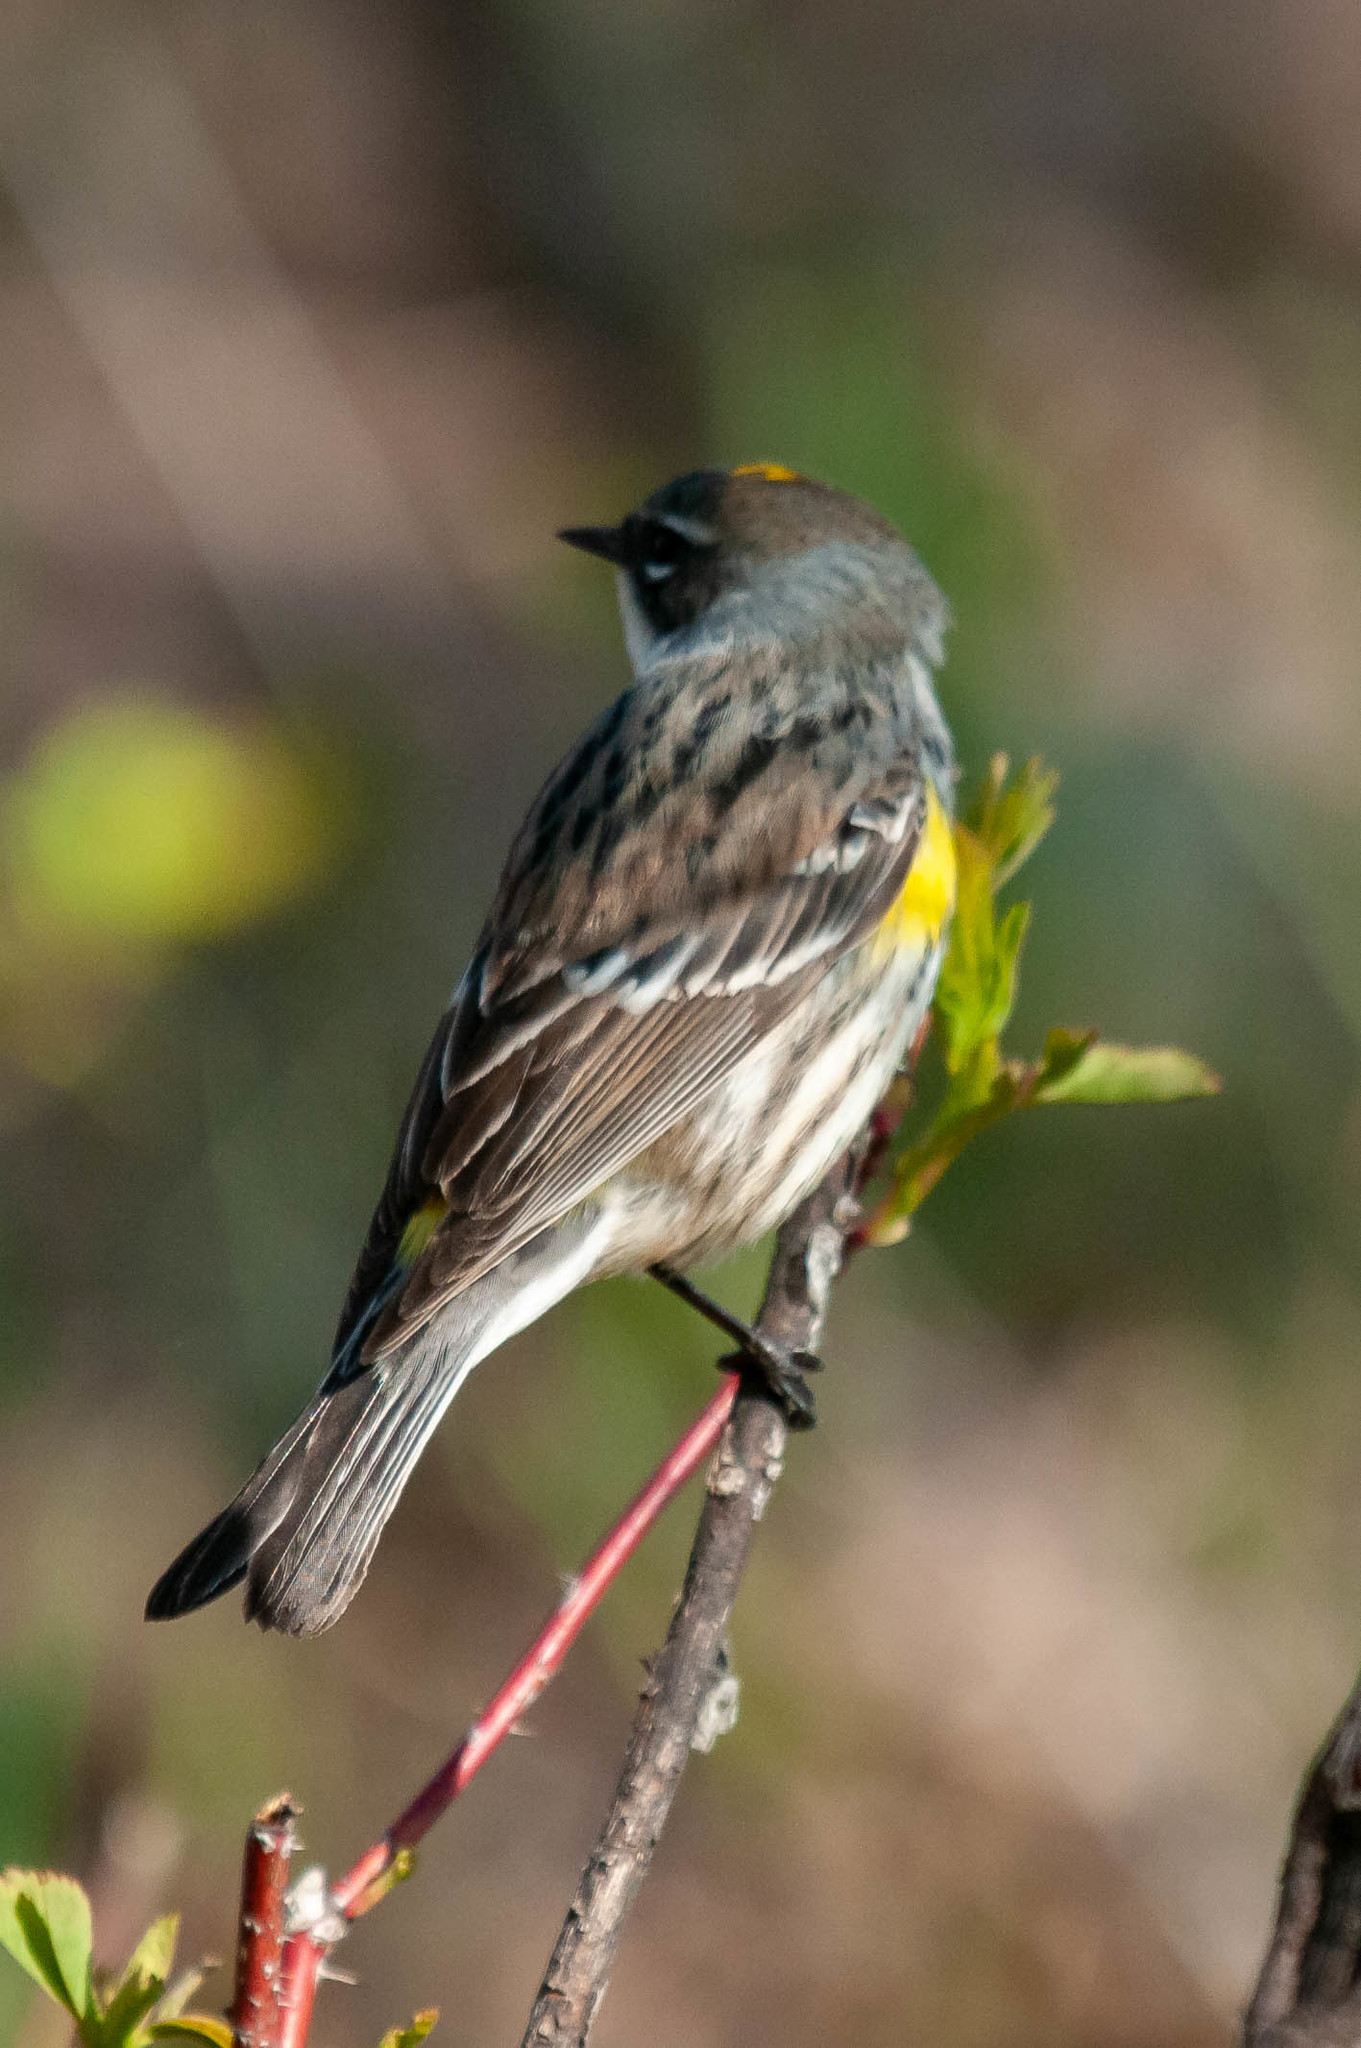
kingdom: Animalia
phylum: Chordata
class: Aves
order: Passeriformes
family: Parulidae
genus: Setophaga
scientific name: Setophaga coronata
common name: Myrtle warbler
